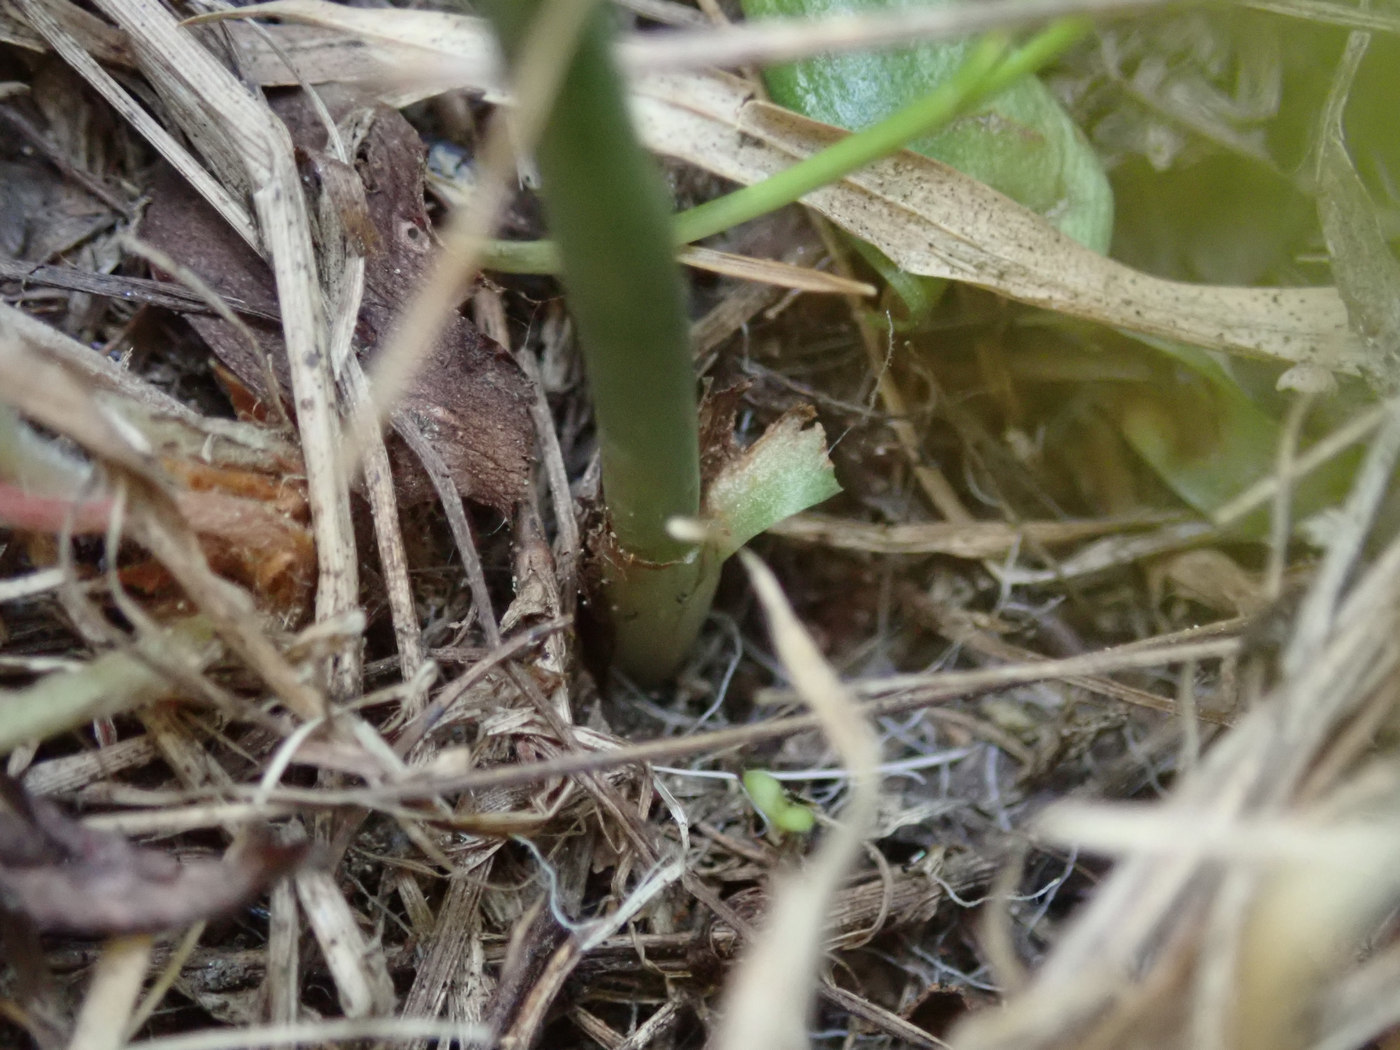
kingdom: Plantae
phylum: Tracheophyta
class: Liliopsida
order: Asparagales
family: Orchidaceae
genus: Spiranthes
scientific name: Spiranthes lacera
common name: Northern slender ladies'-tresses
